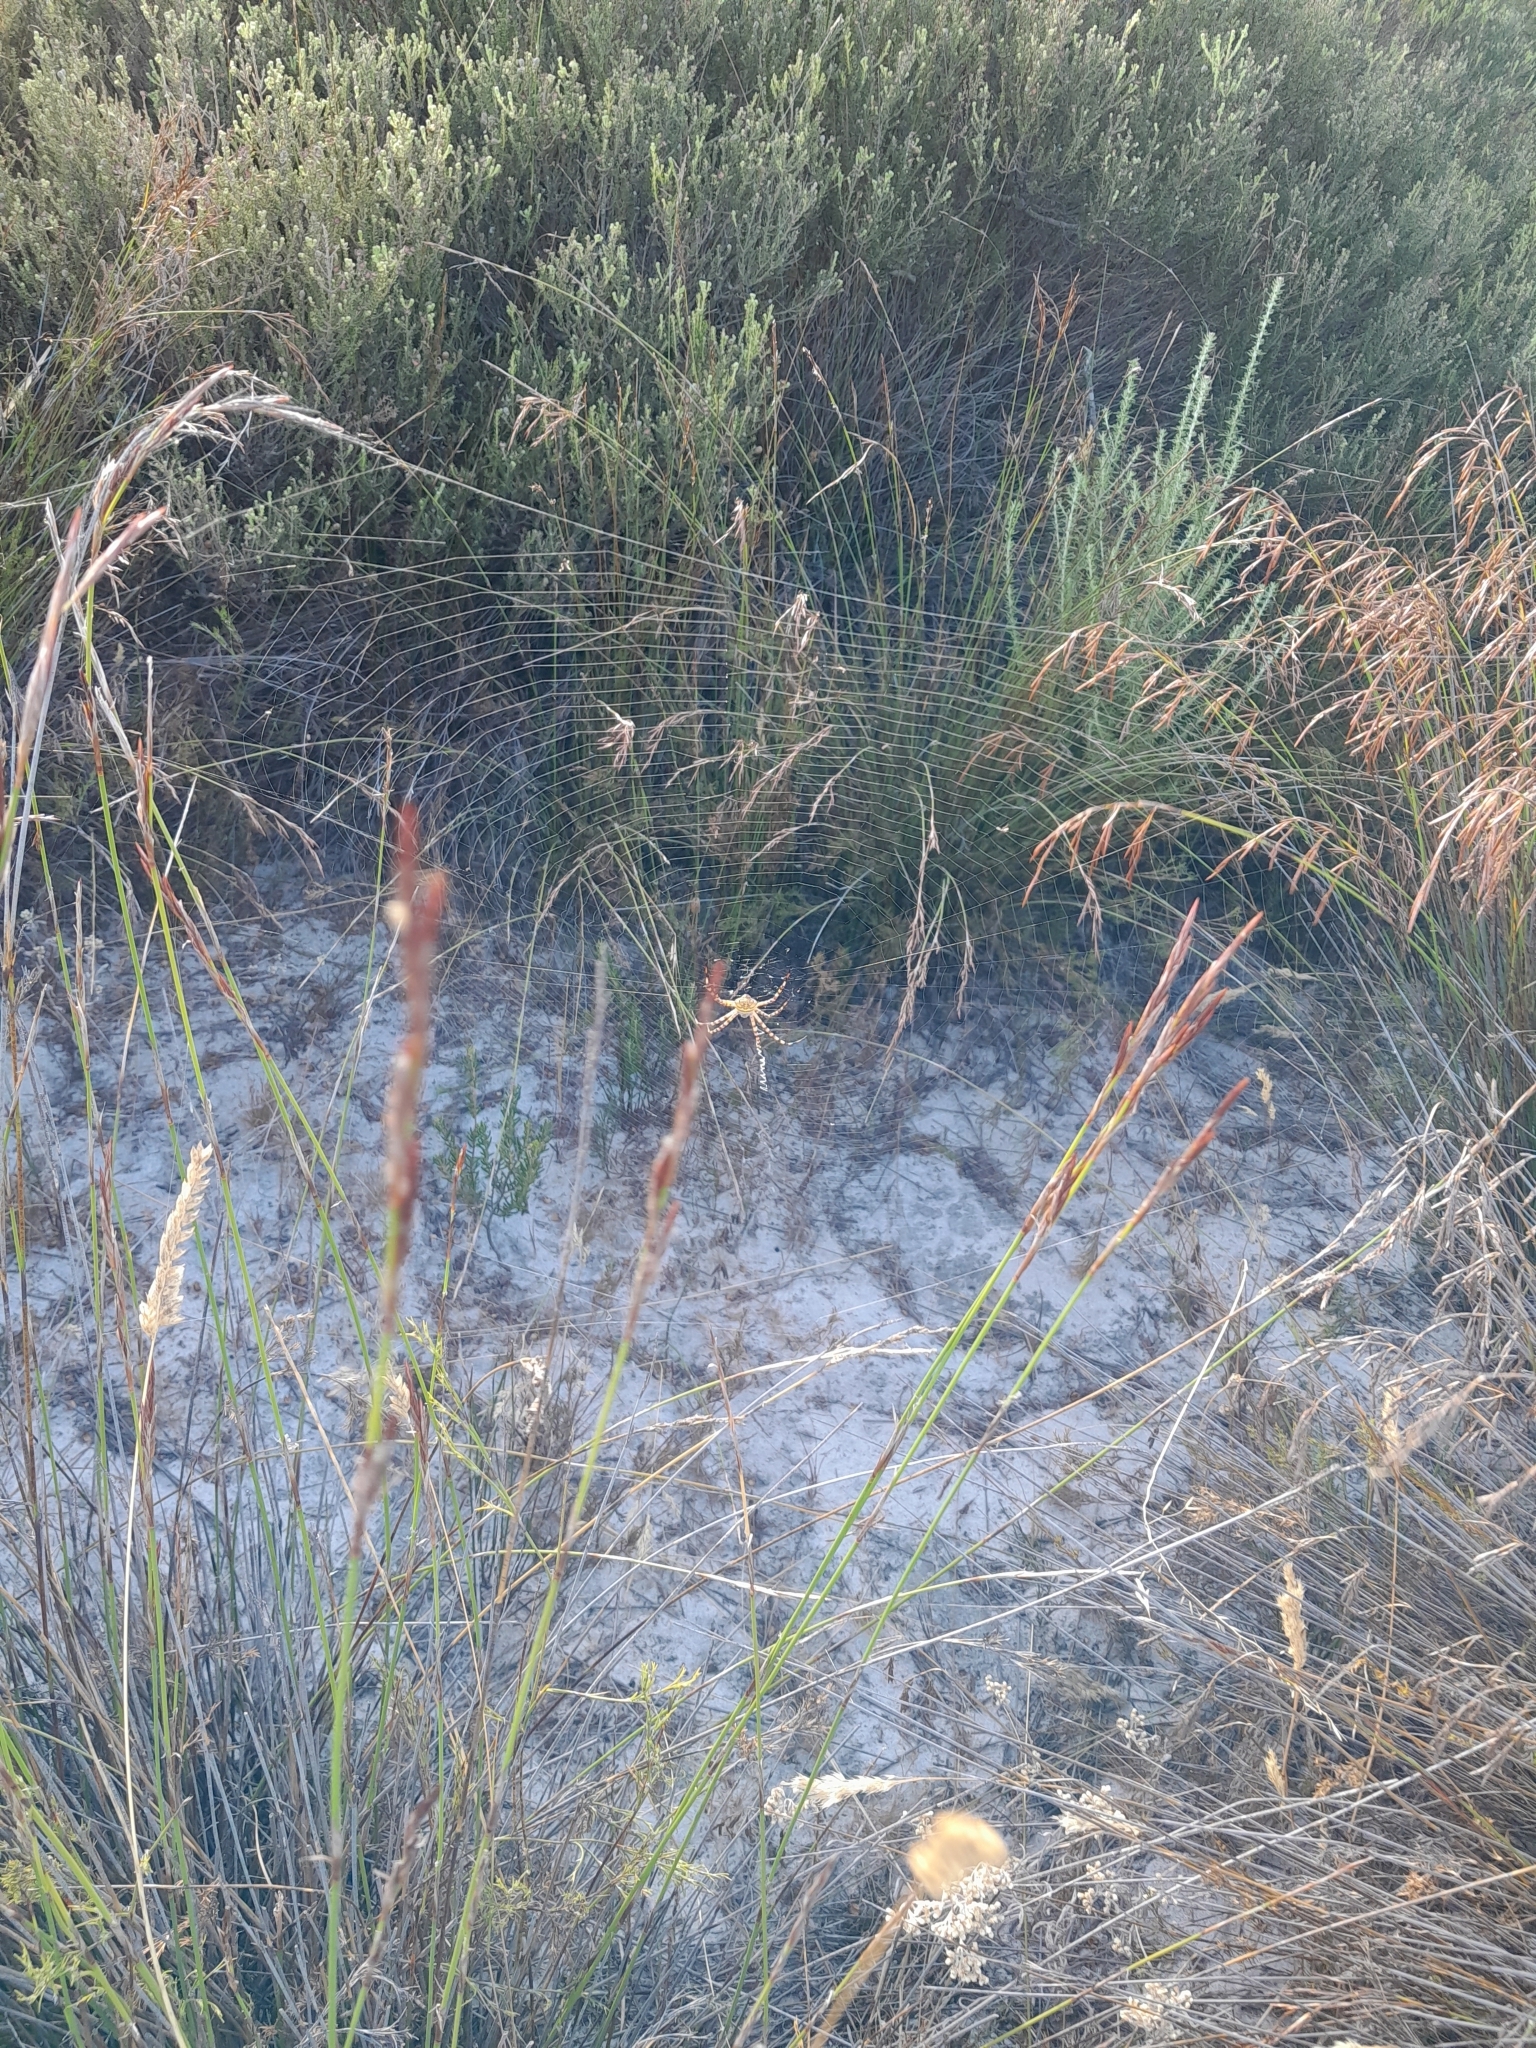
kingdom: Animalia
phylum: Arthropoda
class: Arachnida
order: Araneae
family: Araneidae
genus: Argiope
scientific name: Argiope australis
